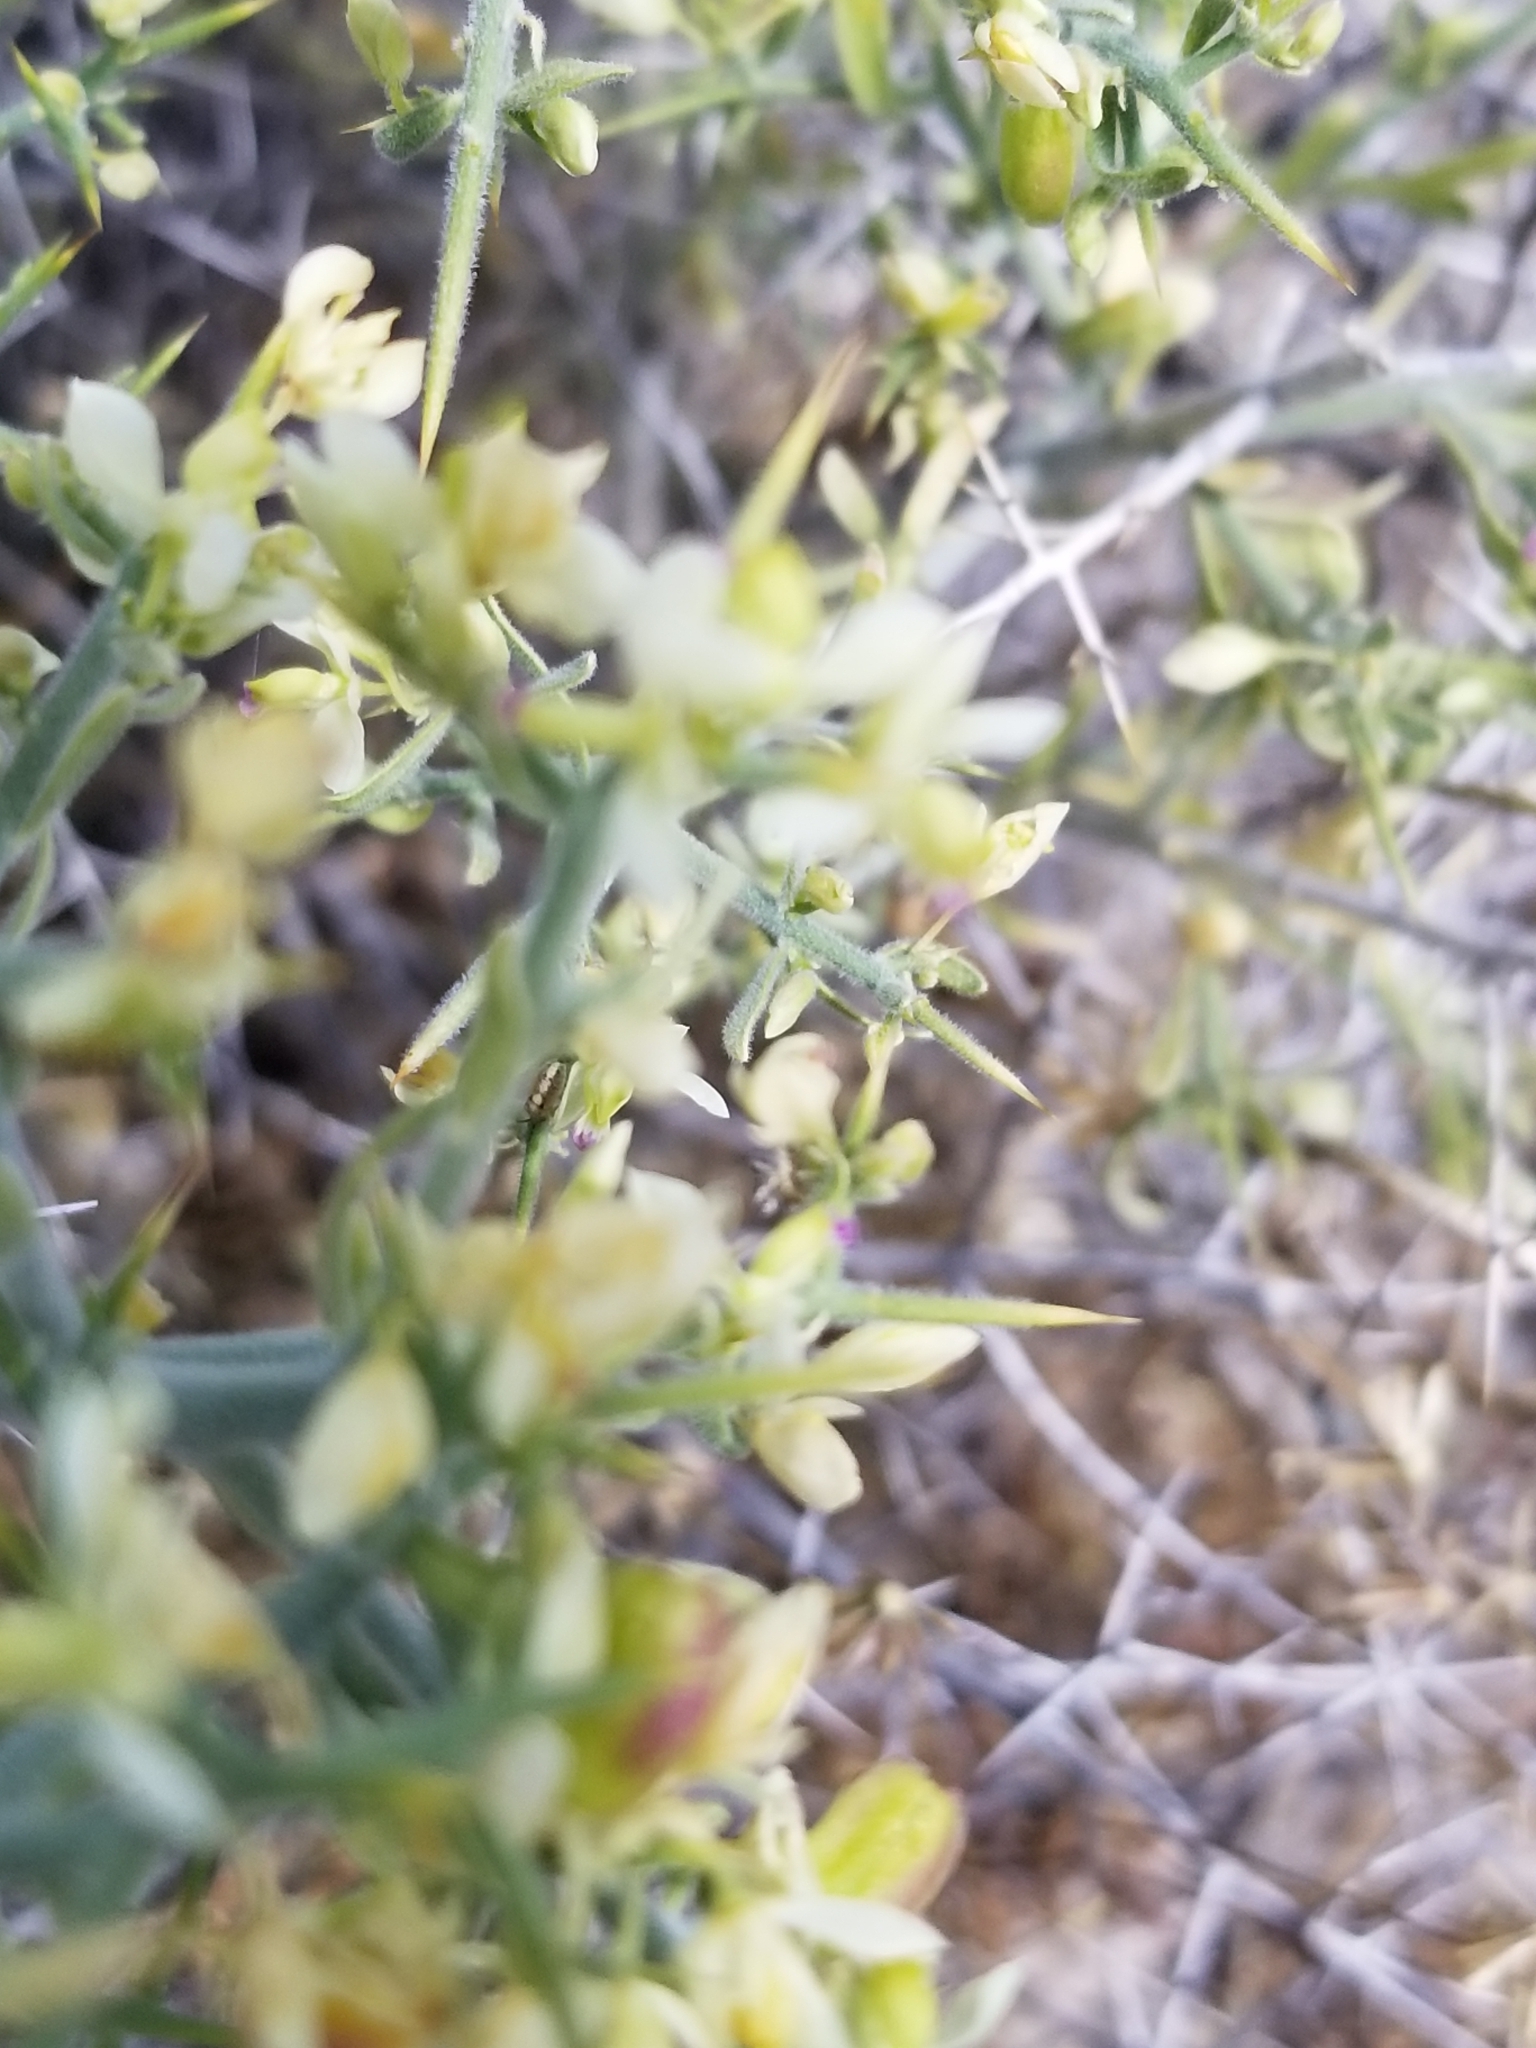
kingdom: Plantae
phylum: Tracheophyta
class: Magnoliopsida
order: Lamiales
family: Oleaceae
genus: Menodora
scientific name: Menodora spinescens
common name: Spiny menodora
